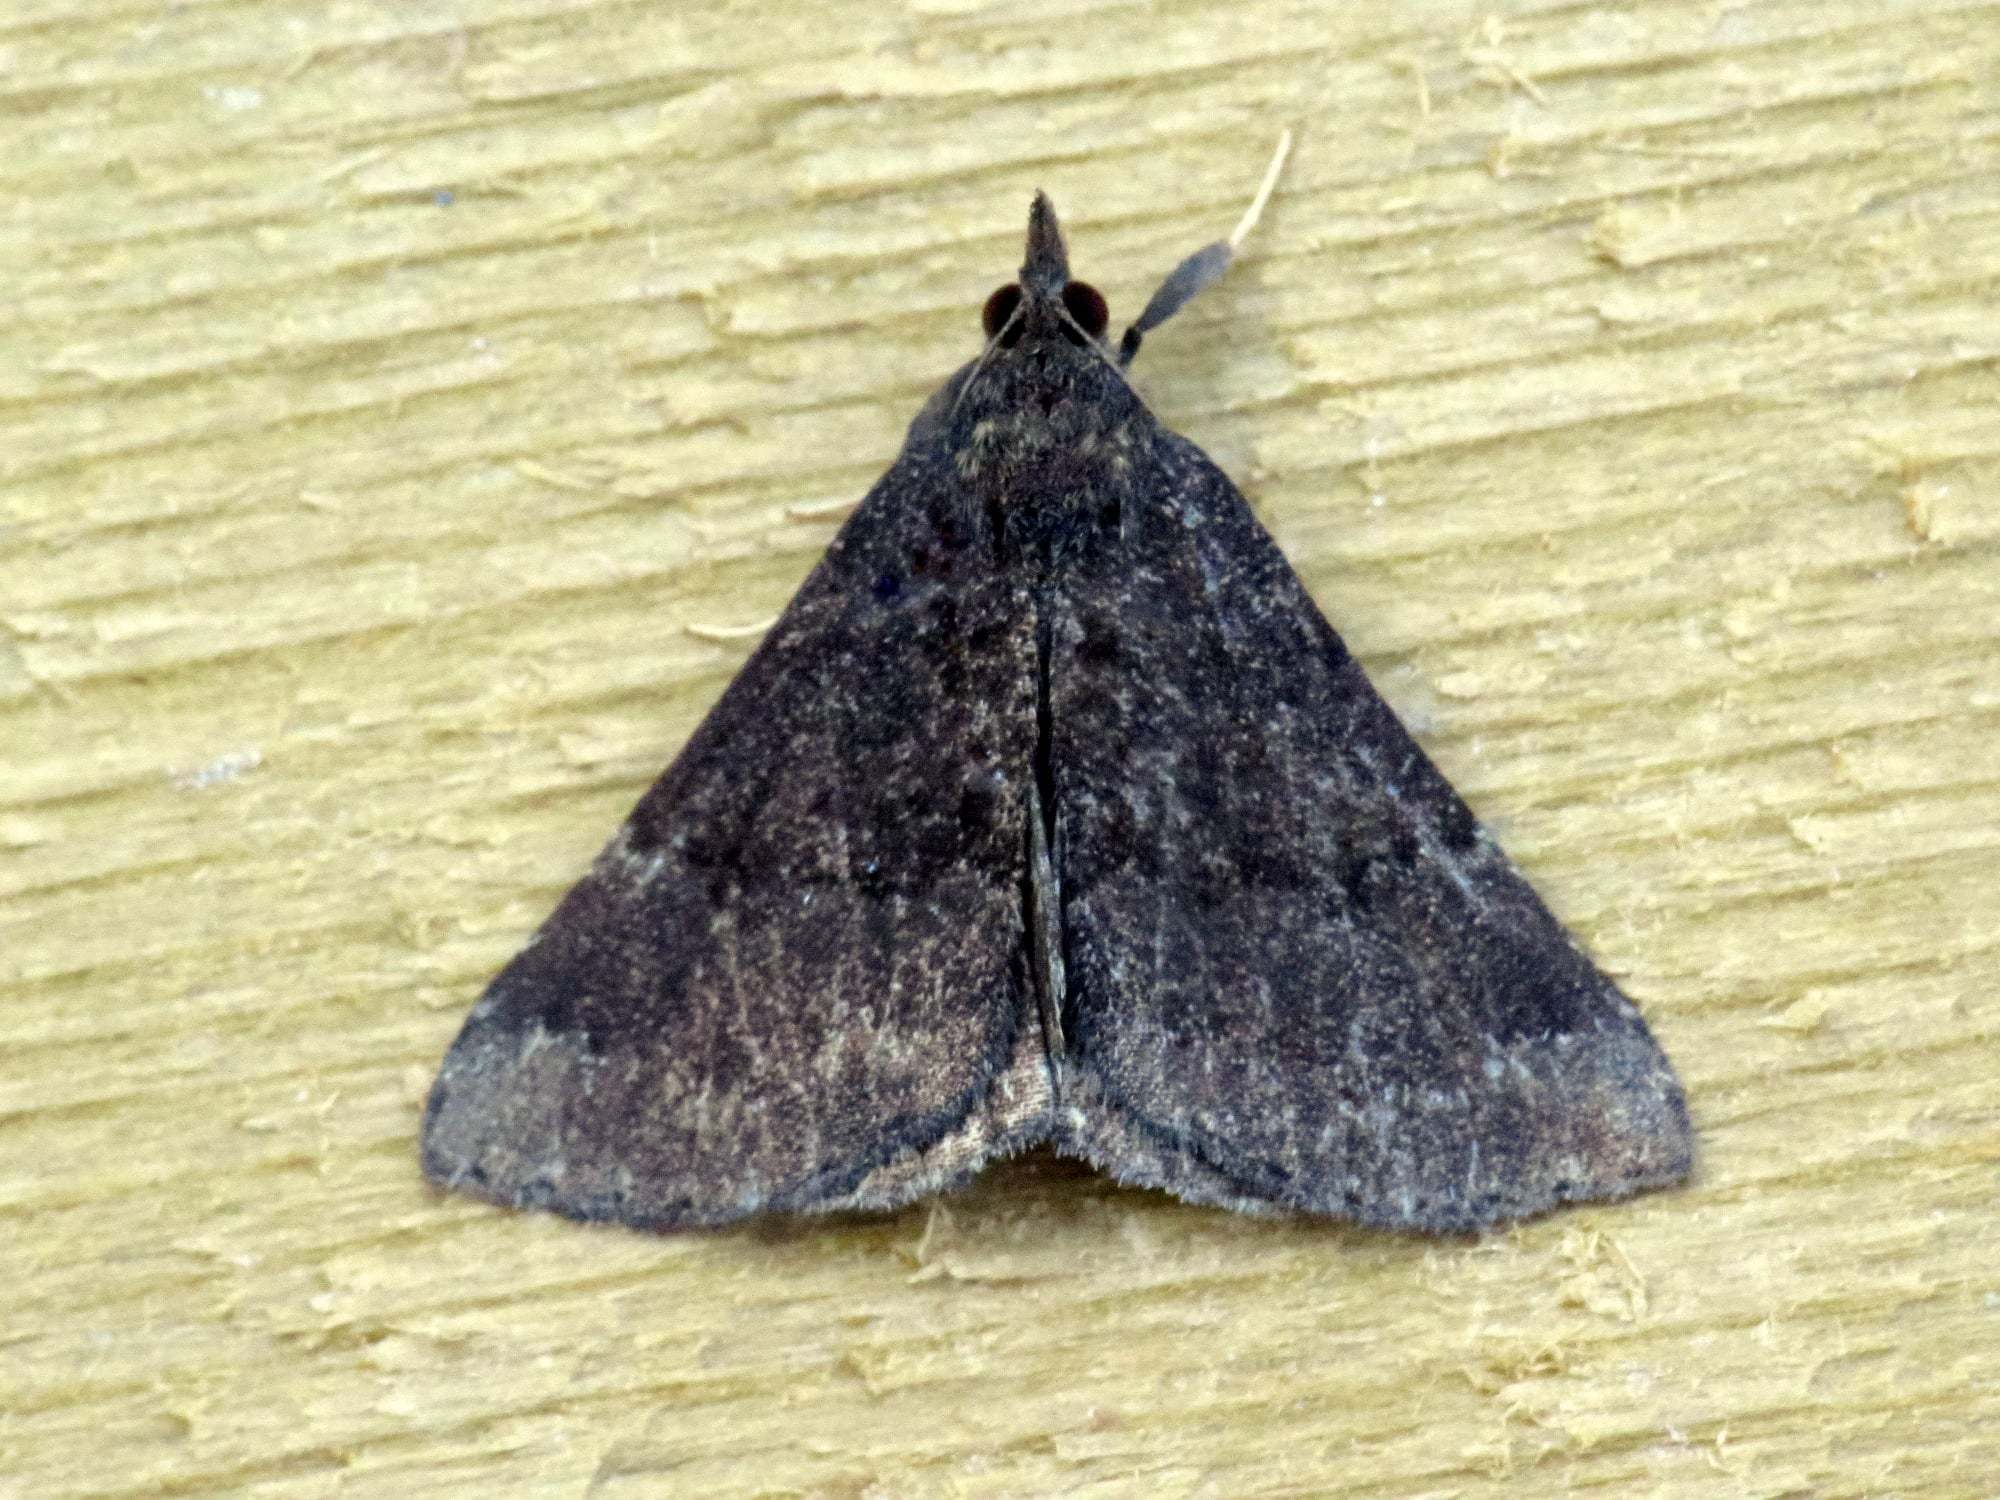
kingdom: Animalia
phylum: Arthropoda
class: Insecta
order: Lepidoptera
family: Erebidae
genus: Hypena
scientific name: Hypena sordidula
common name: Sordid snout
